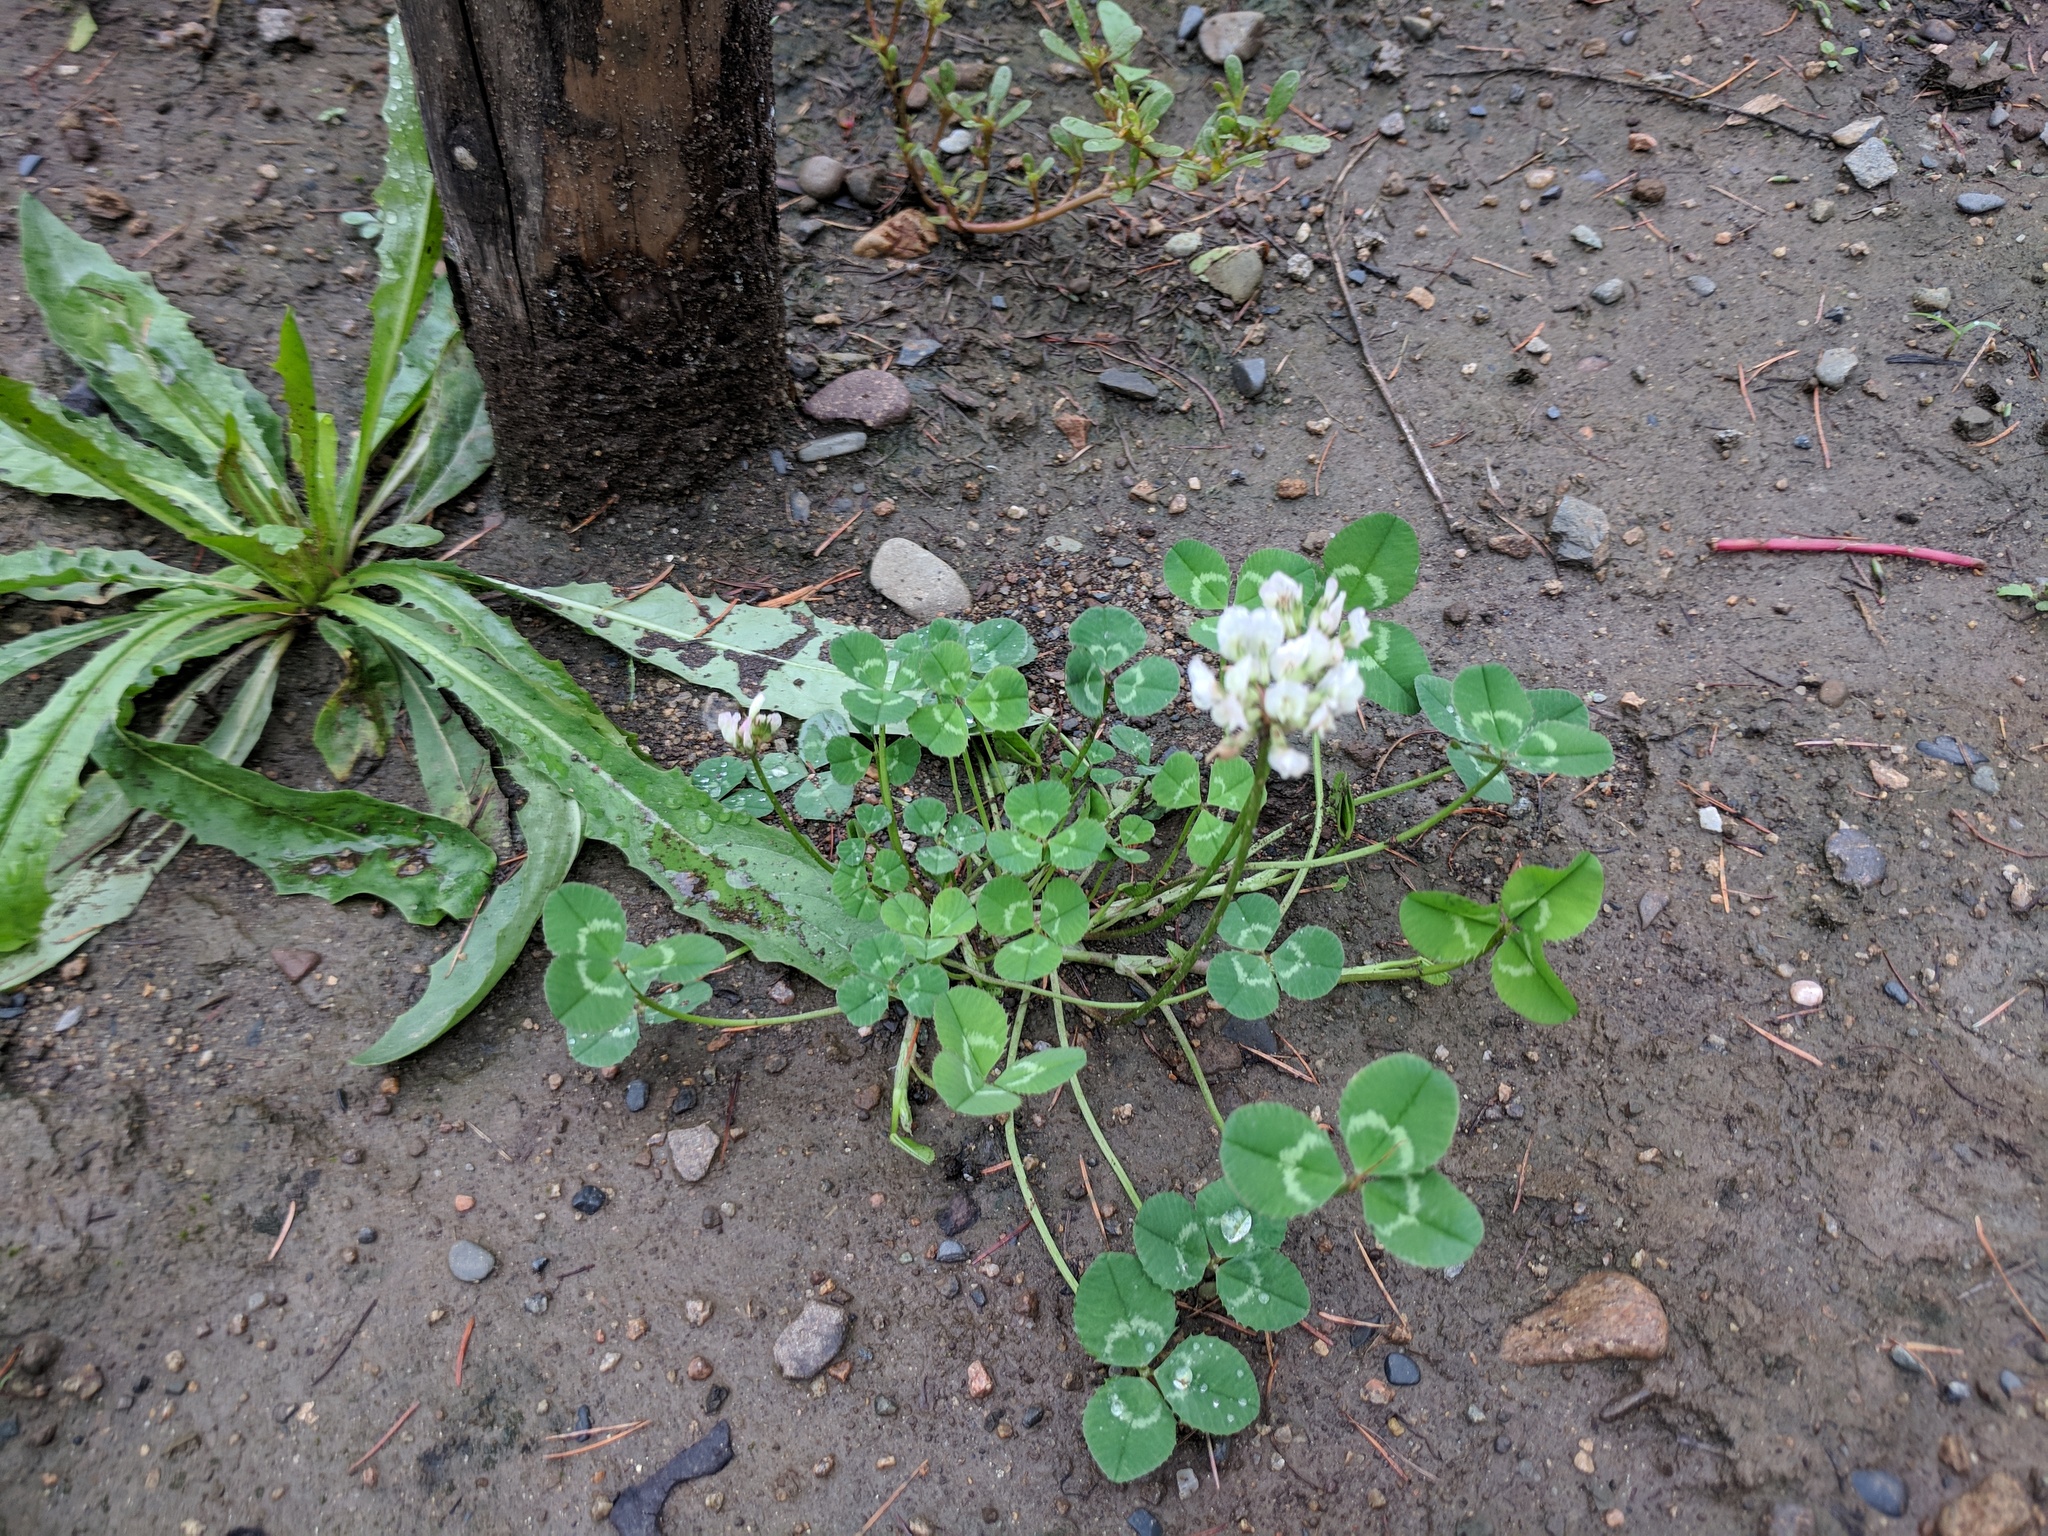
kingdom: Plantae
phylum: Tracheophyta
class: Magnoliopsida
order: Fabales
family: Fabaceae
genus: Trifolium
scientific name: Trifolium repens
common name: White clover
